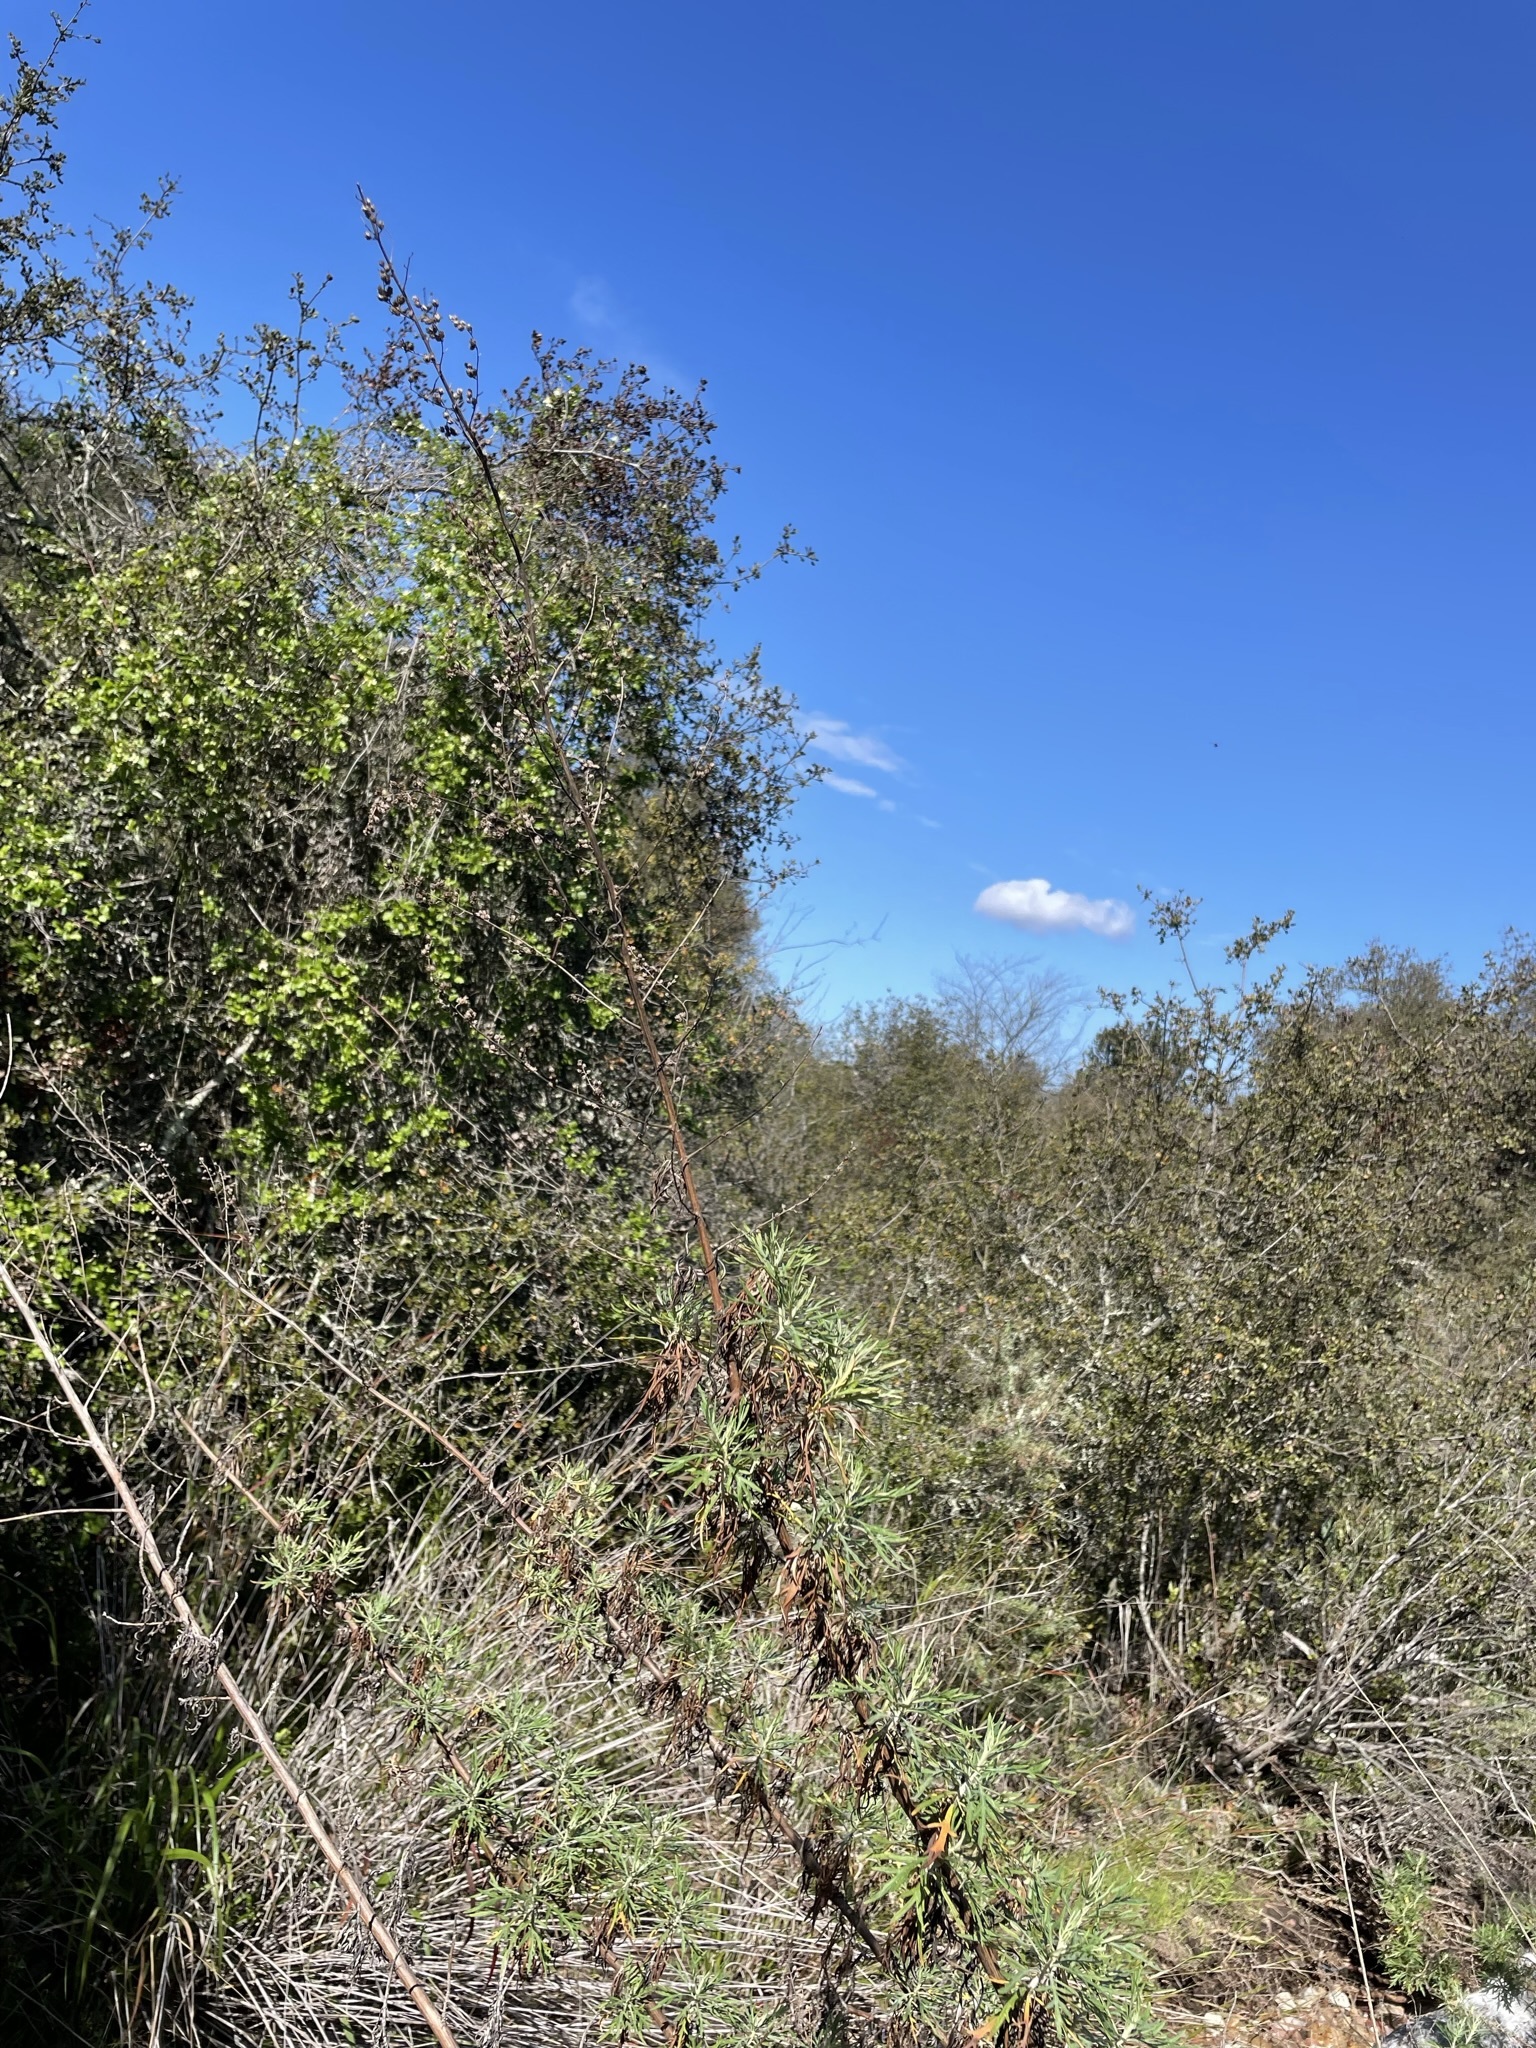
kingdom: Plantae
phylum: Tracheophyta
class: Magnoliopsida
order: Asterales
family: Asteraceae
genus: Artemisia
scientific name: Artemisia palmeri
